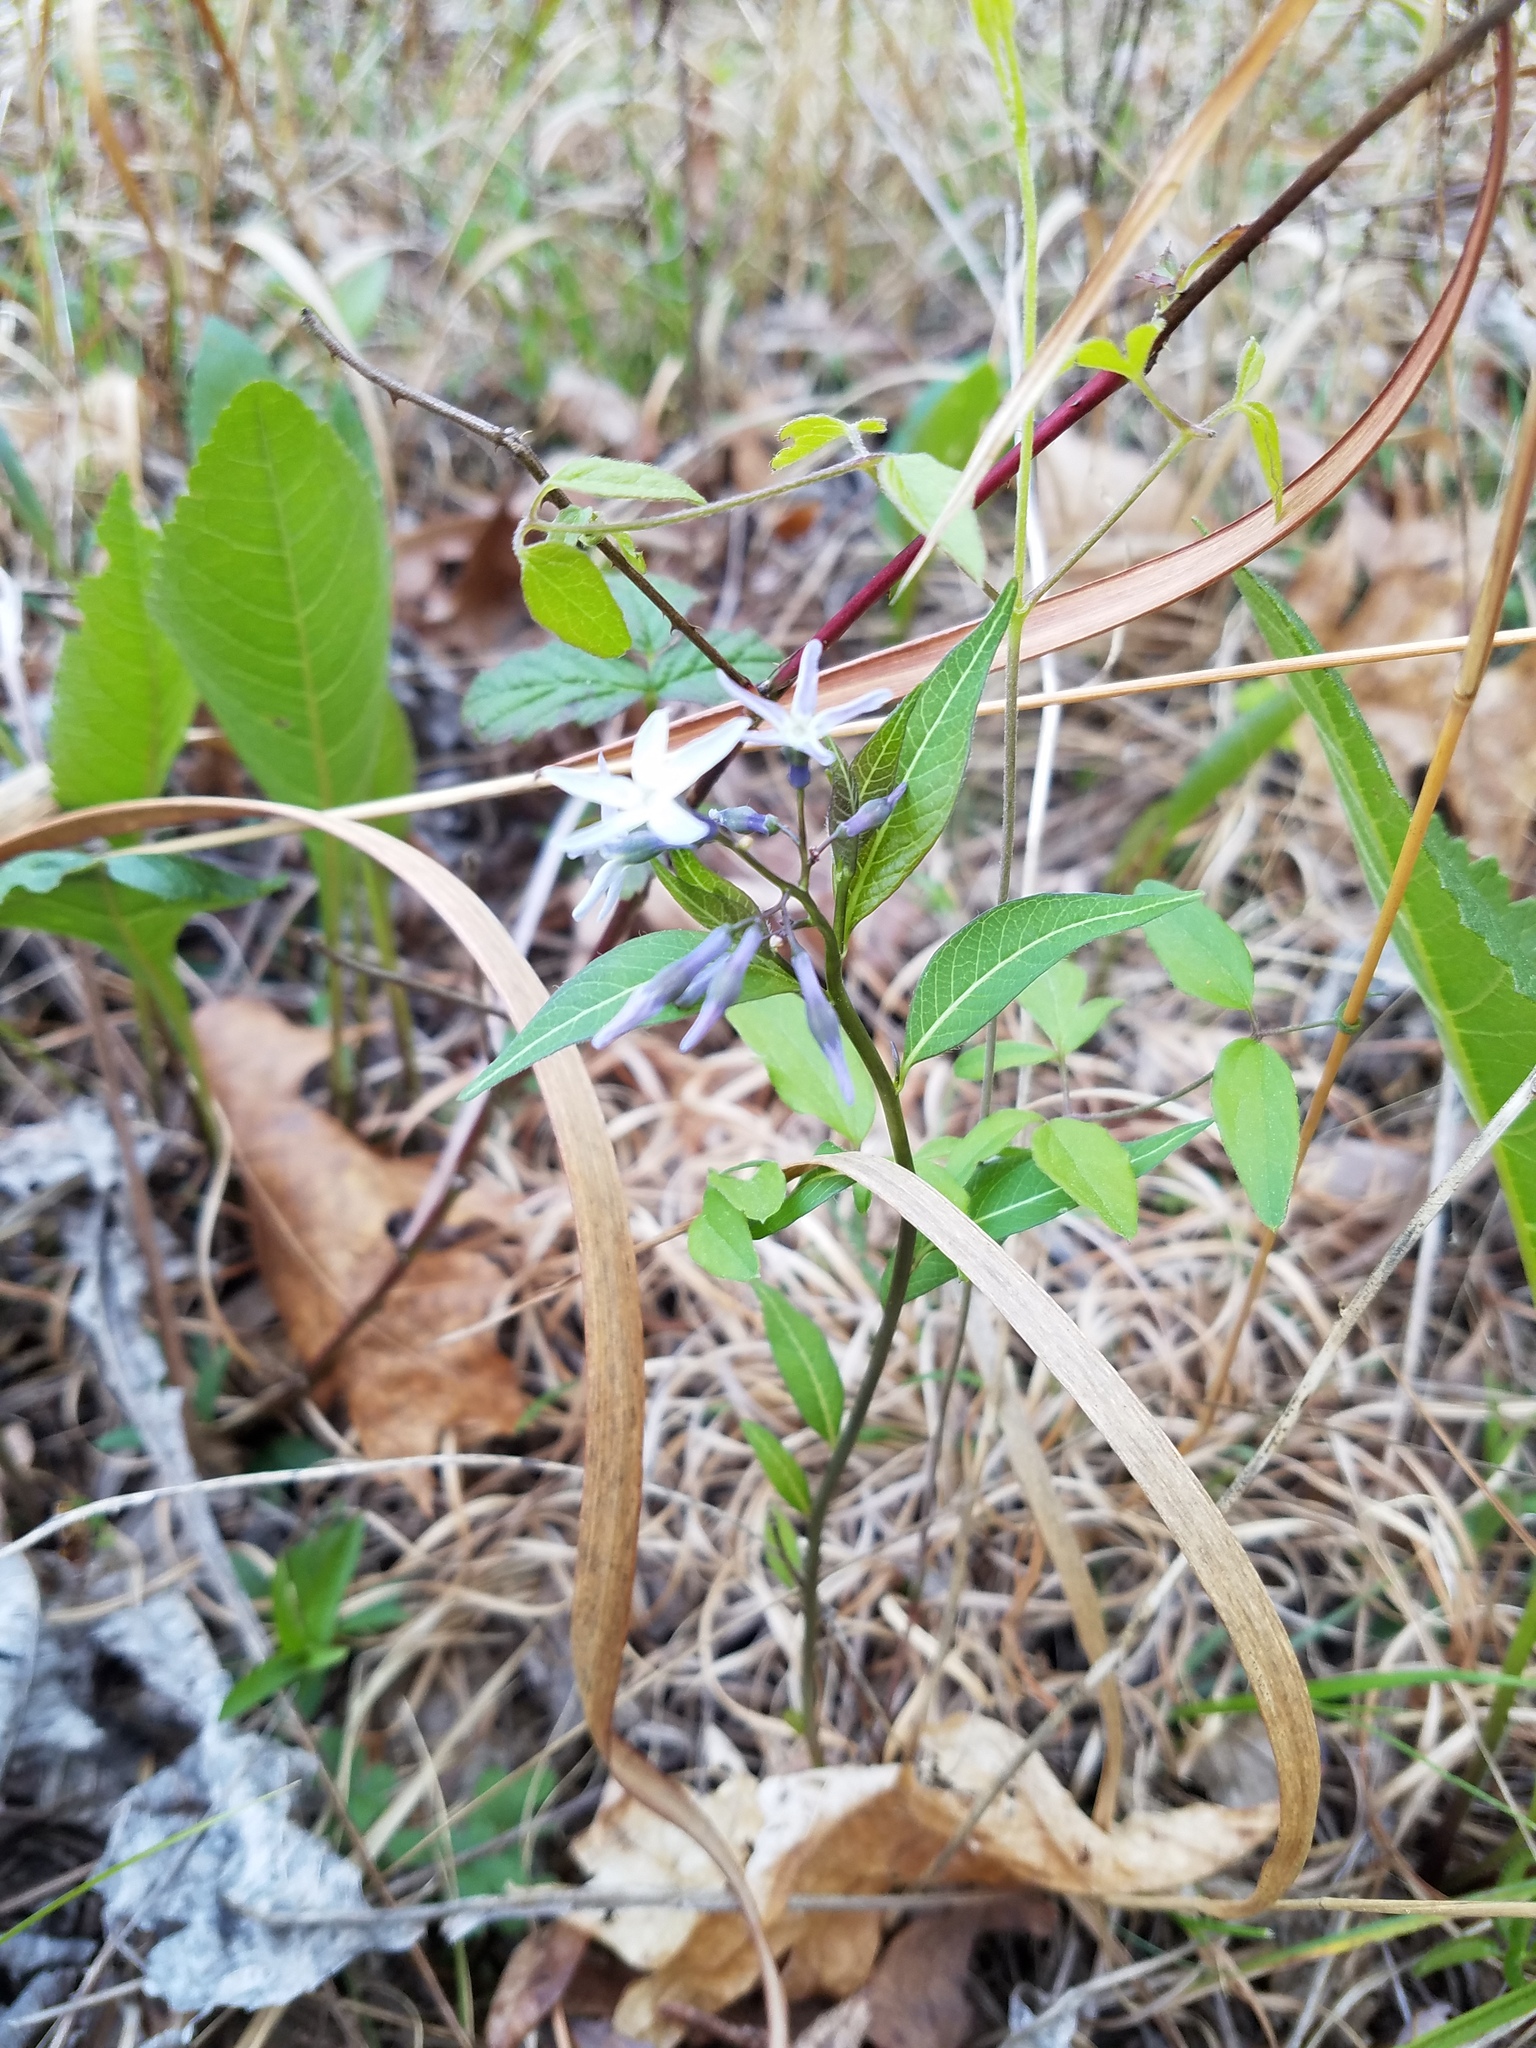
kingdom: Plantae
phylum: Tracheophyta
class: Magnoliopsida
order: Gentianales
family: Apocynaceae
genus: Amsonia
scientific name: Amsonia tabernaemontana
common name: Texas-star
